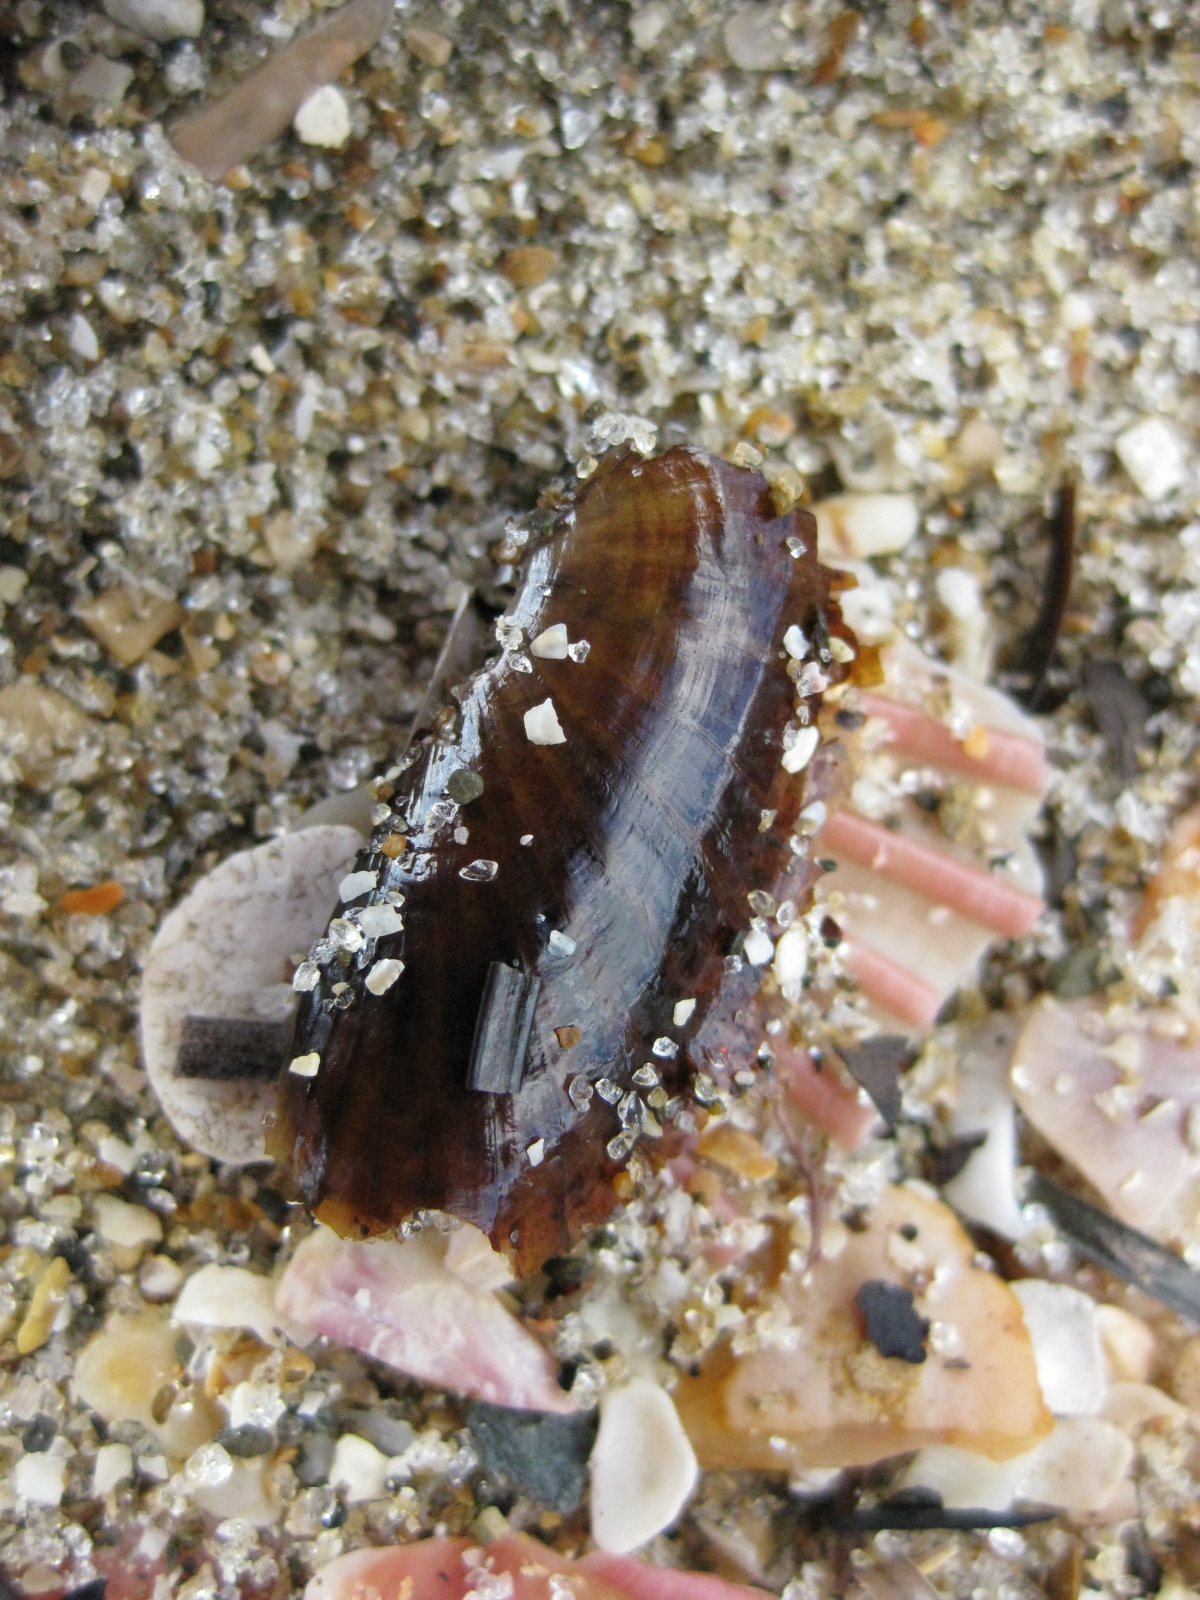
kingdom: Animalia
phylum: Mollusca
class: Bivalvia
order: Solemyida
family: Solemyidae
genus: Solemya
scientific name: Solemya parkinsonii
